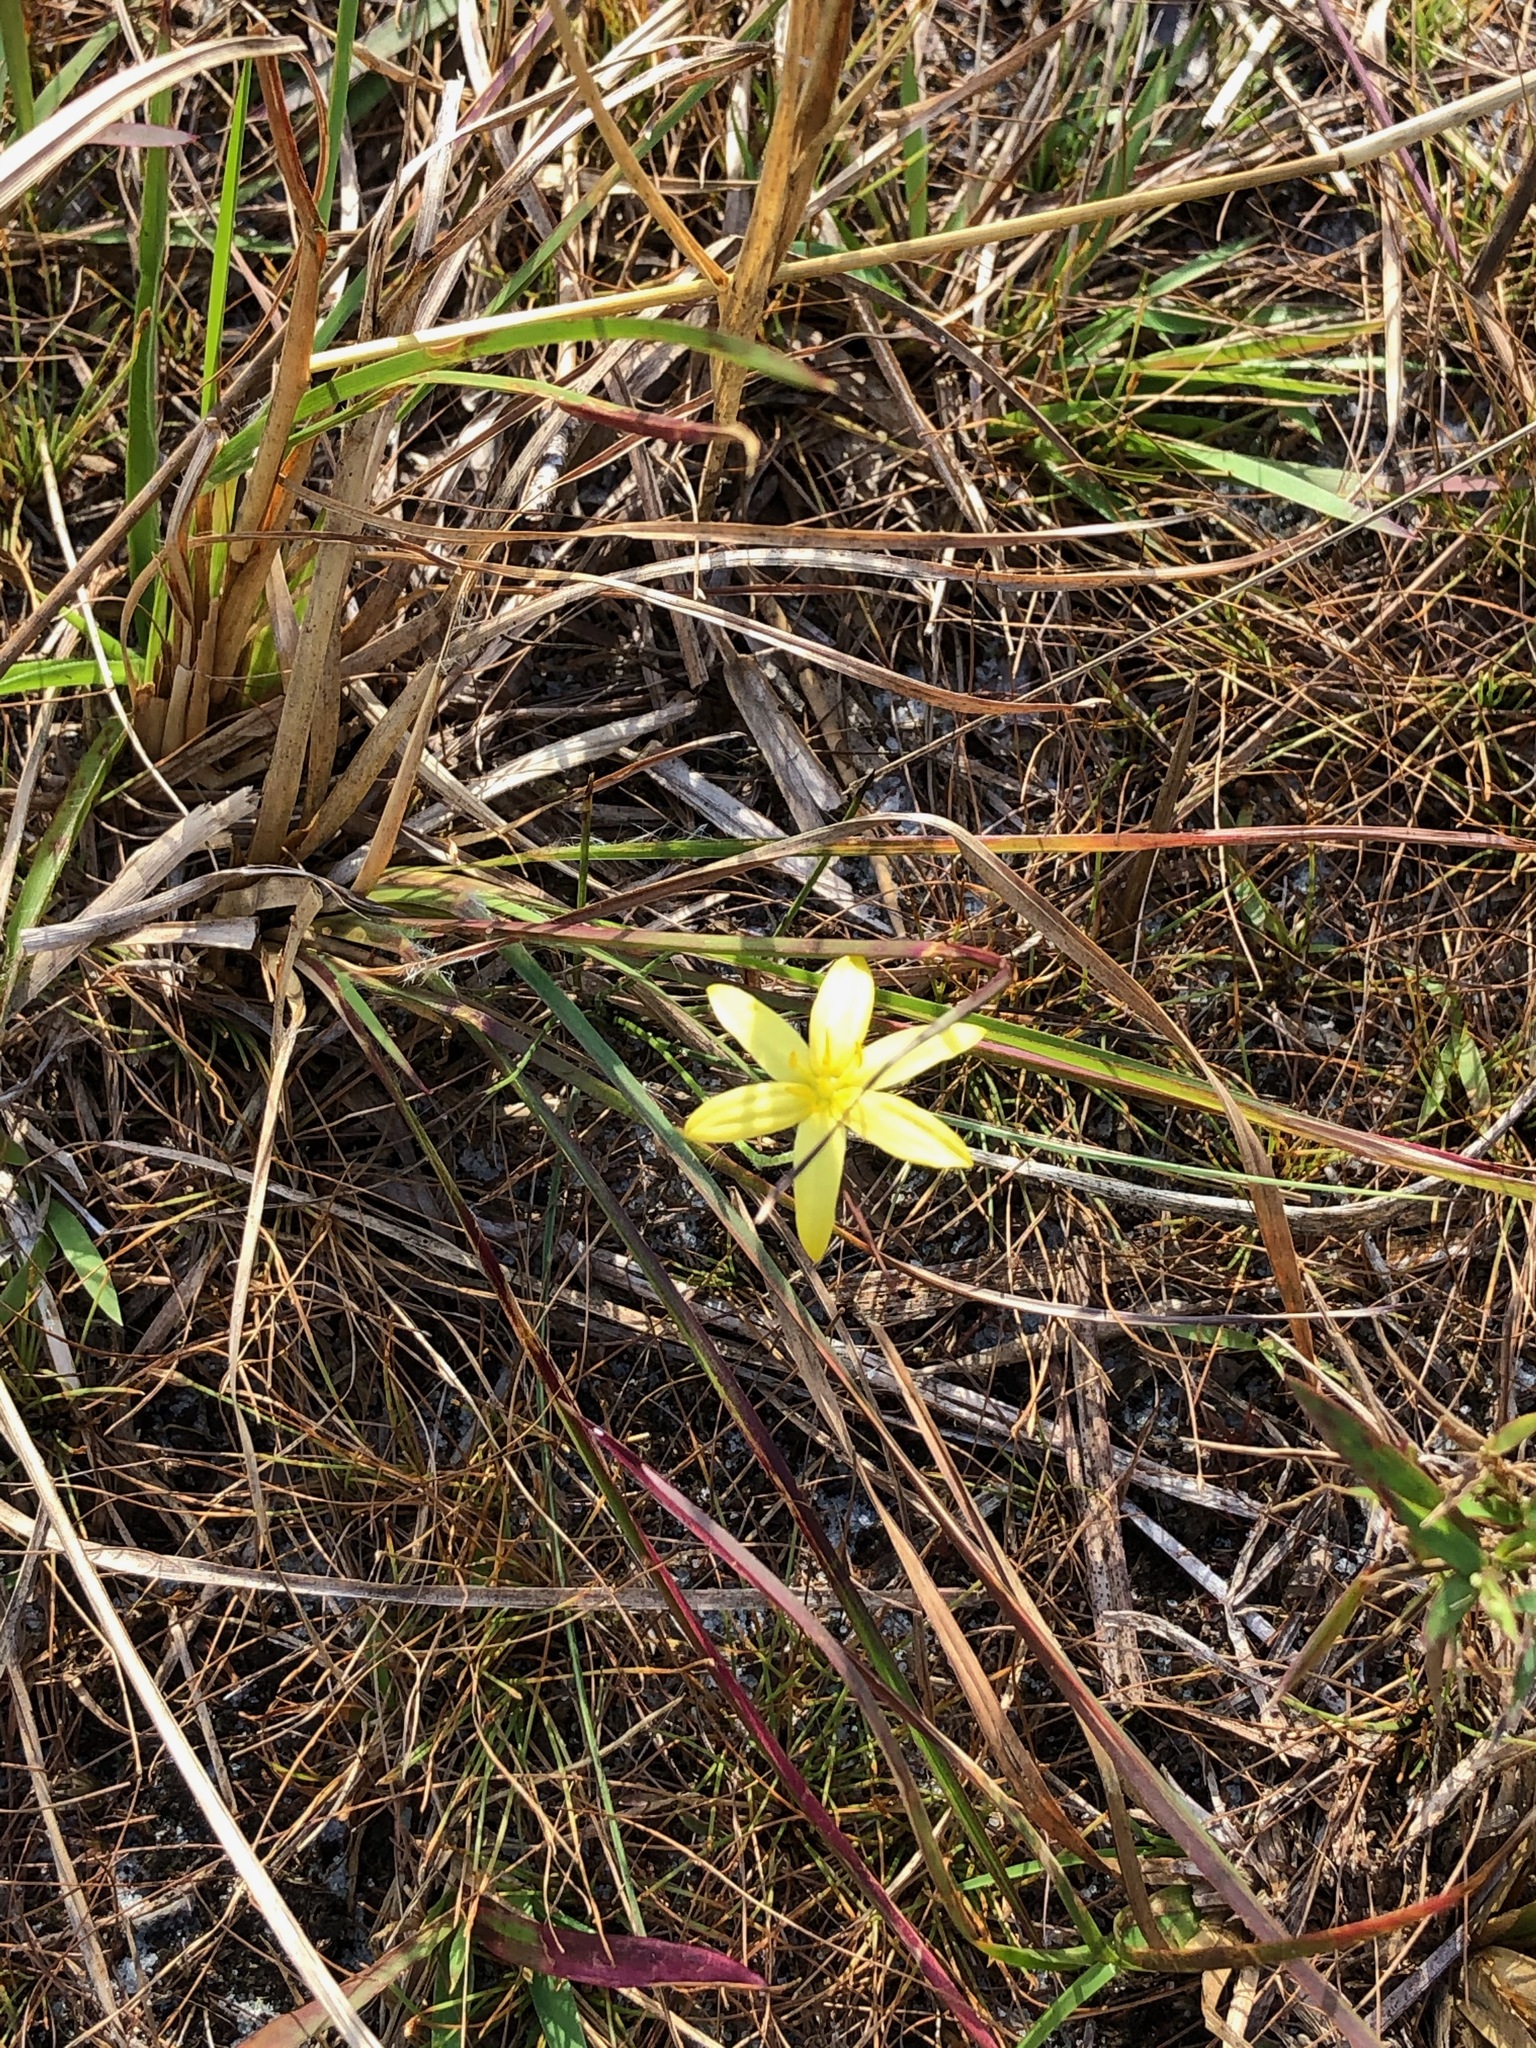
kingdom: Plantae
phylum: Tracheophyta
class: Liliopsida
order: Asparagales
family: Hypoxidaceae
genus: Hypoxis
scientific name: Hypoxis juncea
